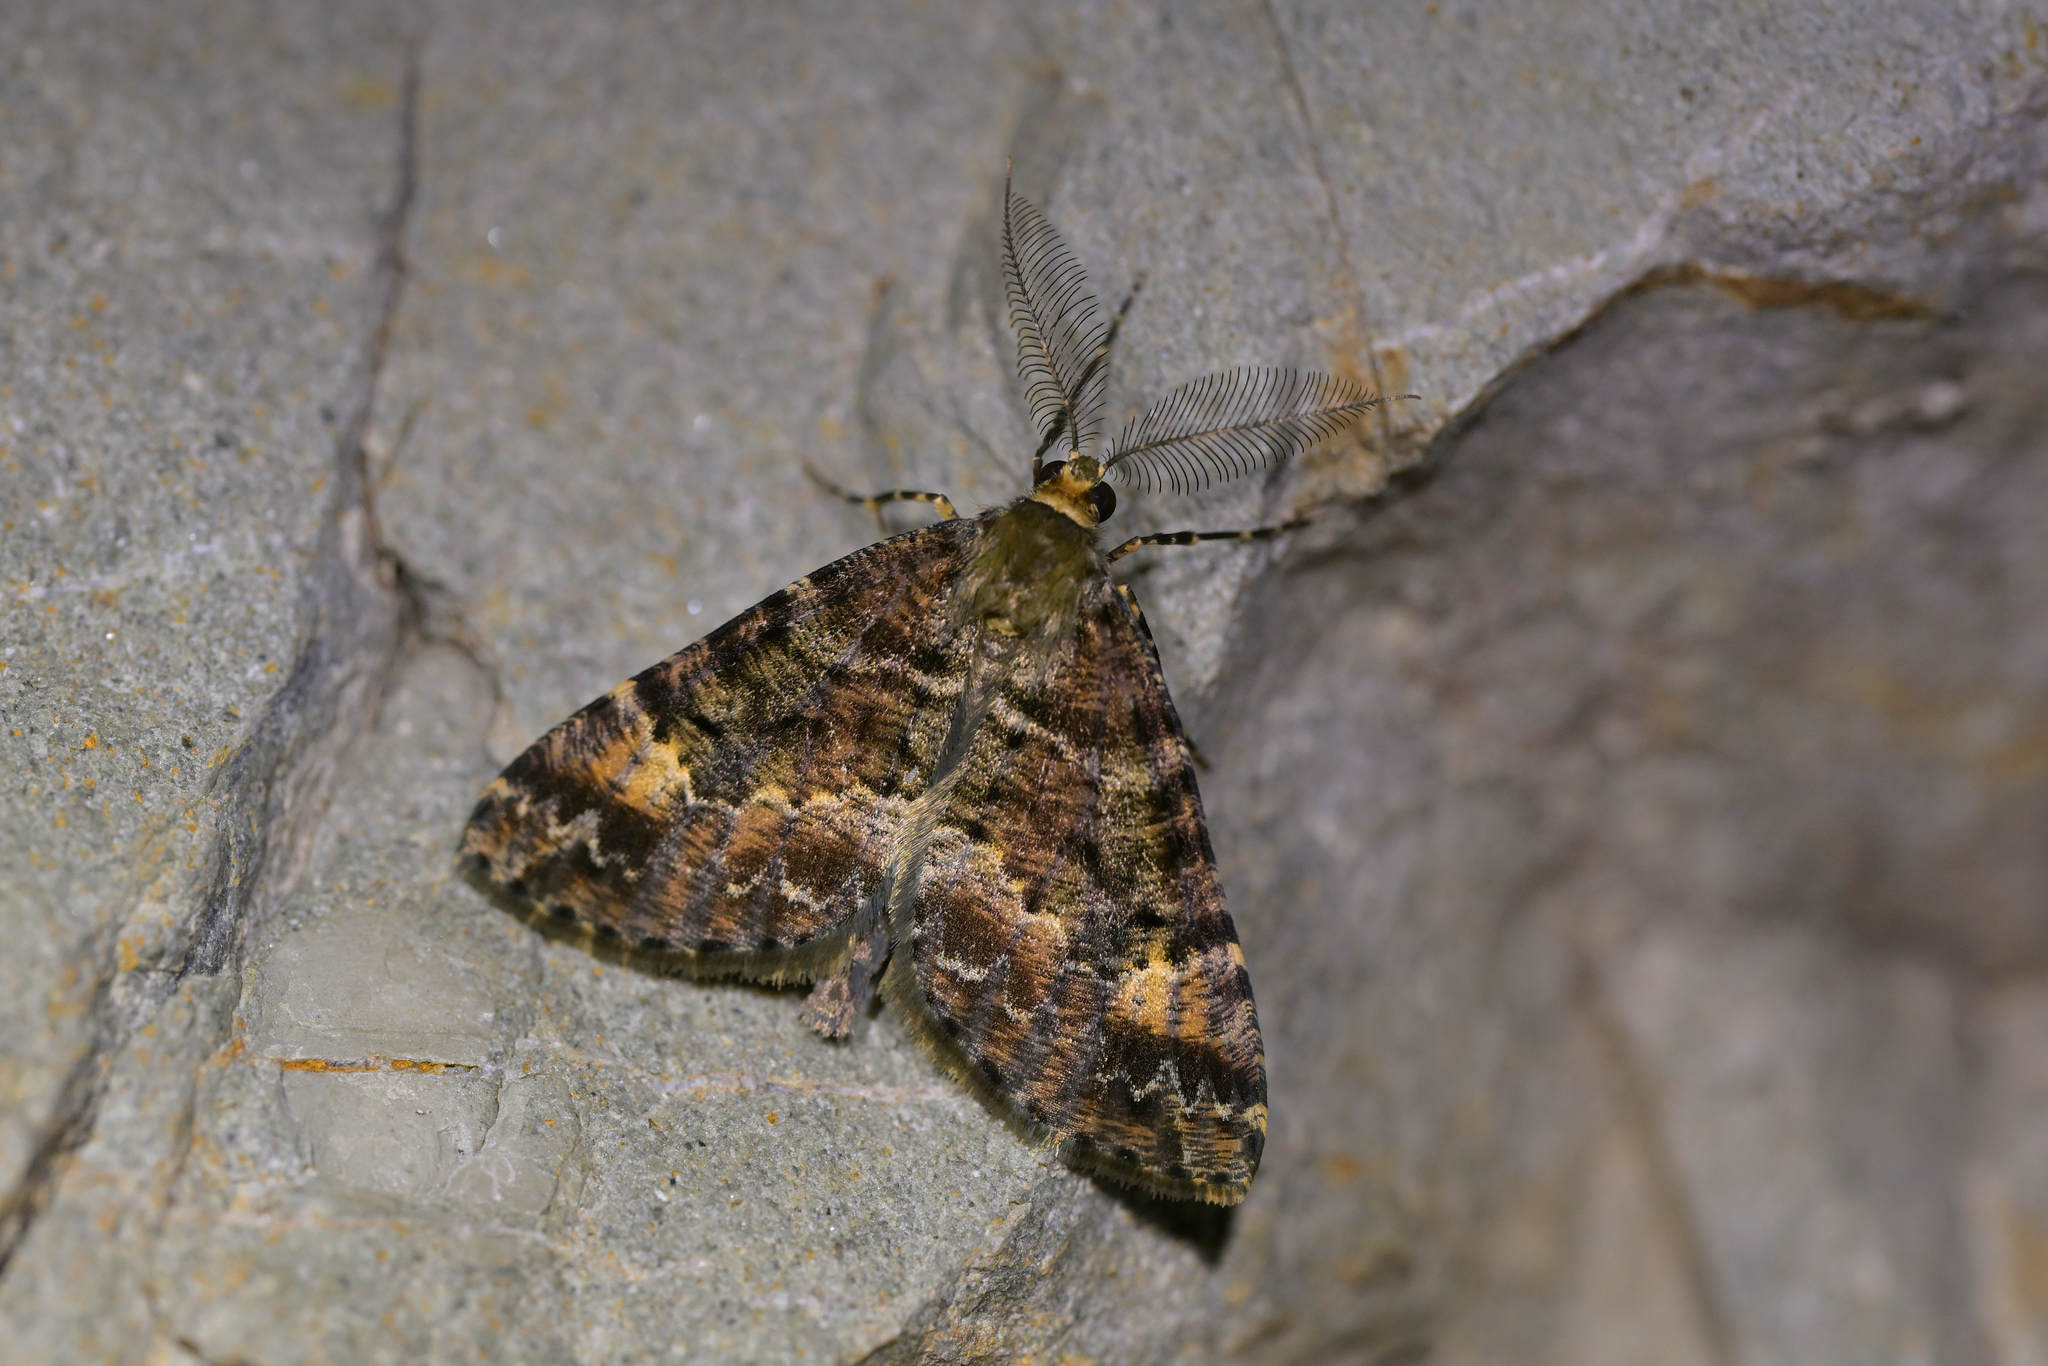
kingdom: Animalia
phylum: Arthropoda
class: Insecta
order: Lepidoptera
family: Geometridae
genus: Pseudocoremia
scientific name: Pseudocoremia productata
